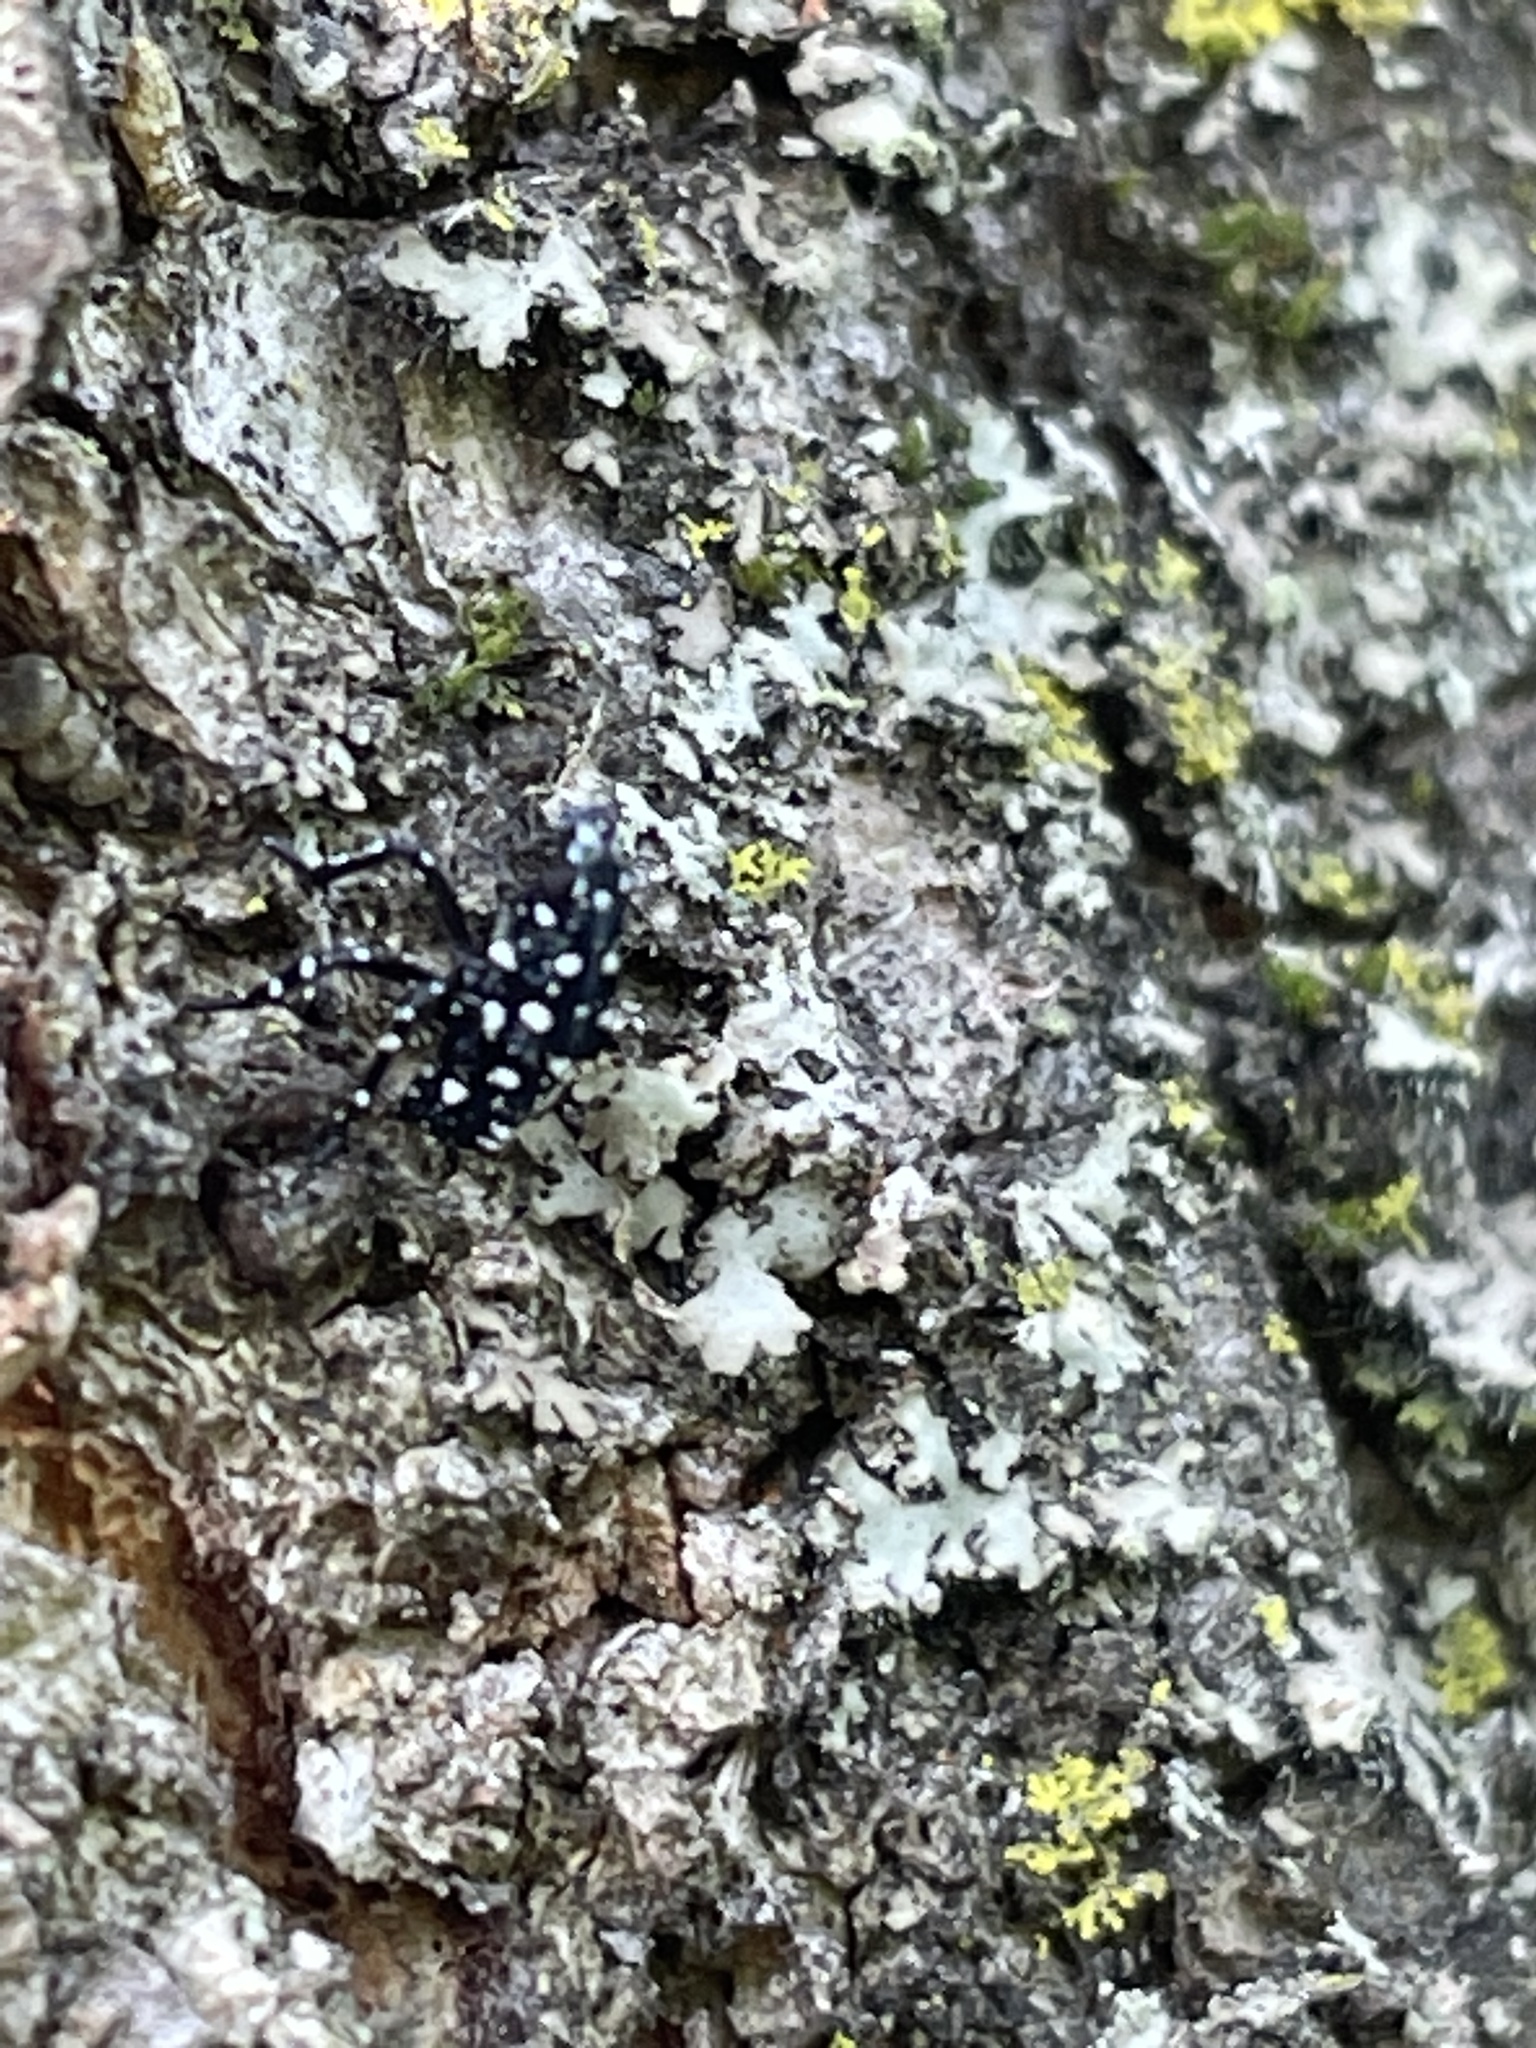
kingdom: Animalia
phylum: Arthropoda
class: Insecta
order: Hemiptera
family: Fulgoridae
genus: Lycorma
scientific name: Lycorma delicatula
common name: Spotted lanternfly
